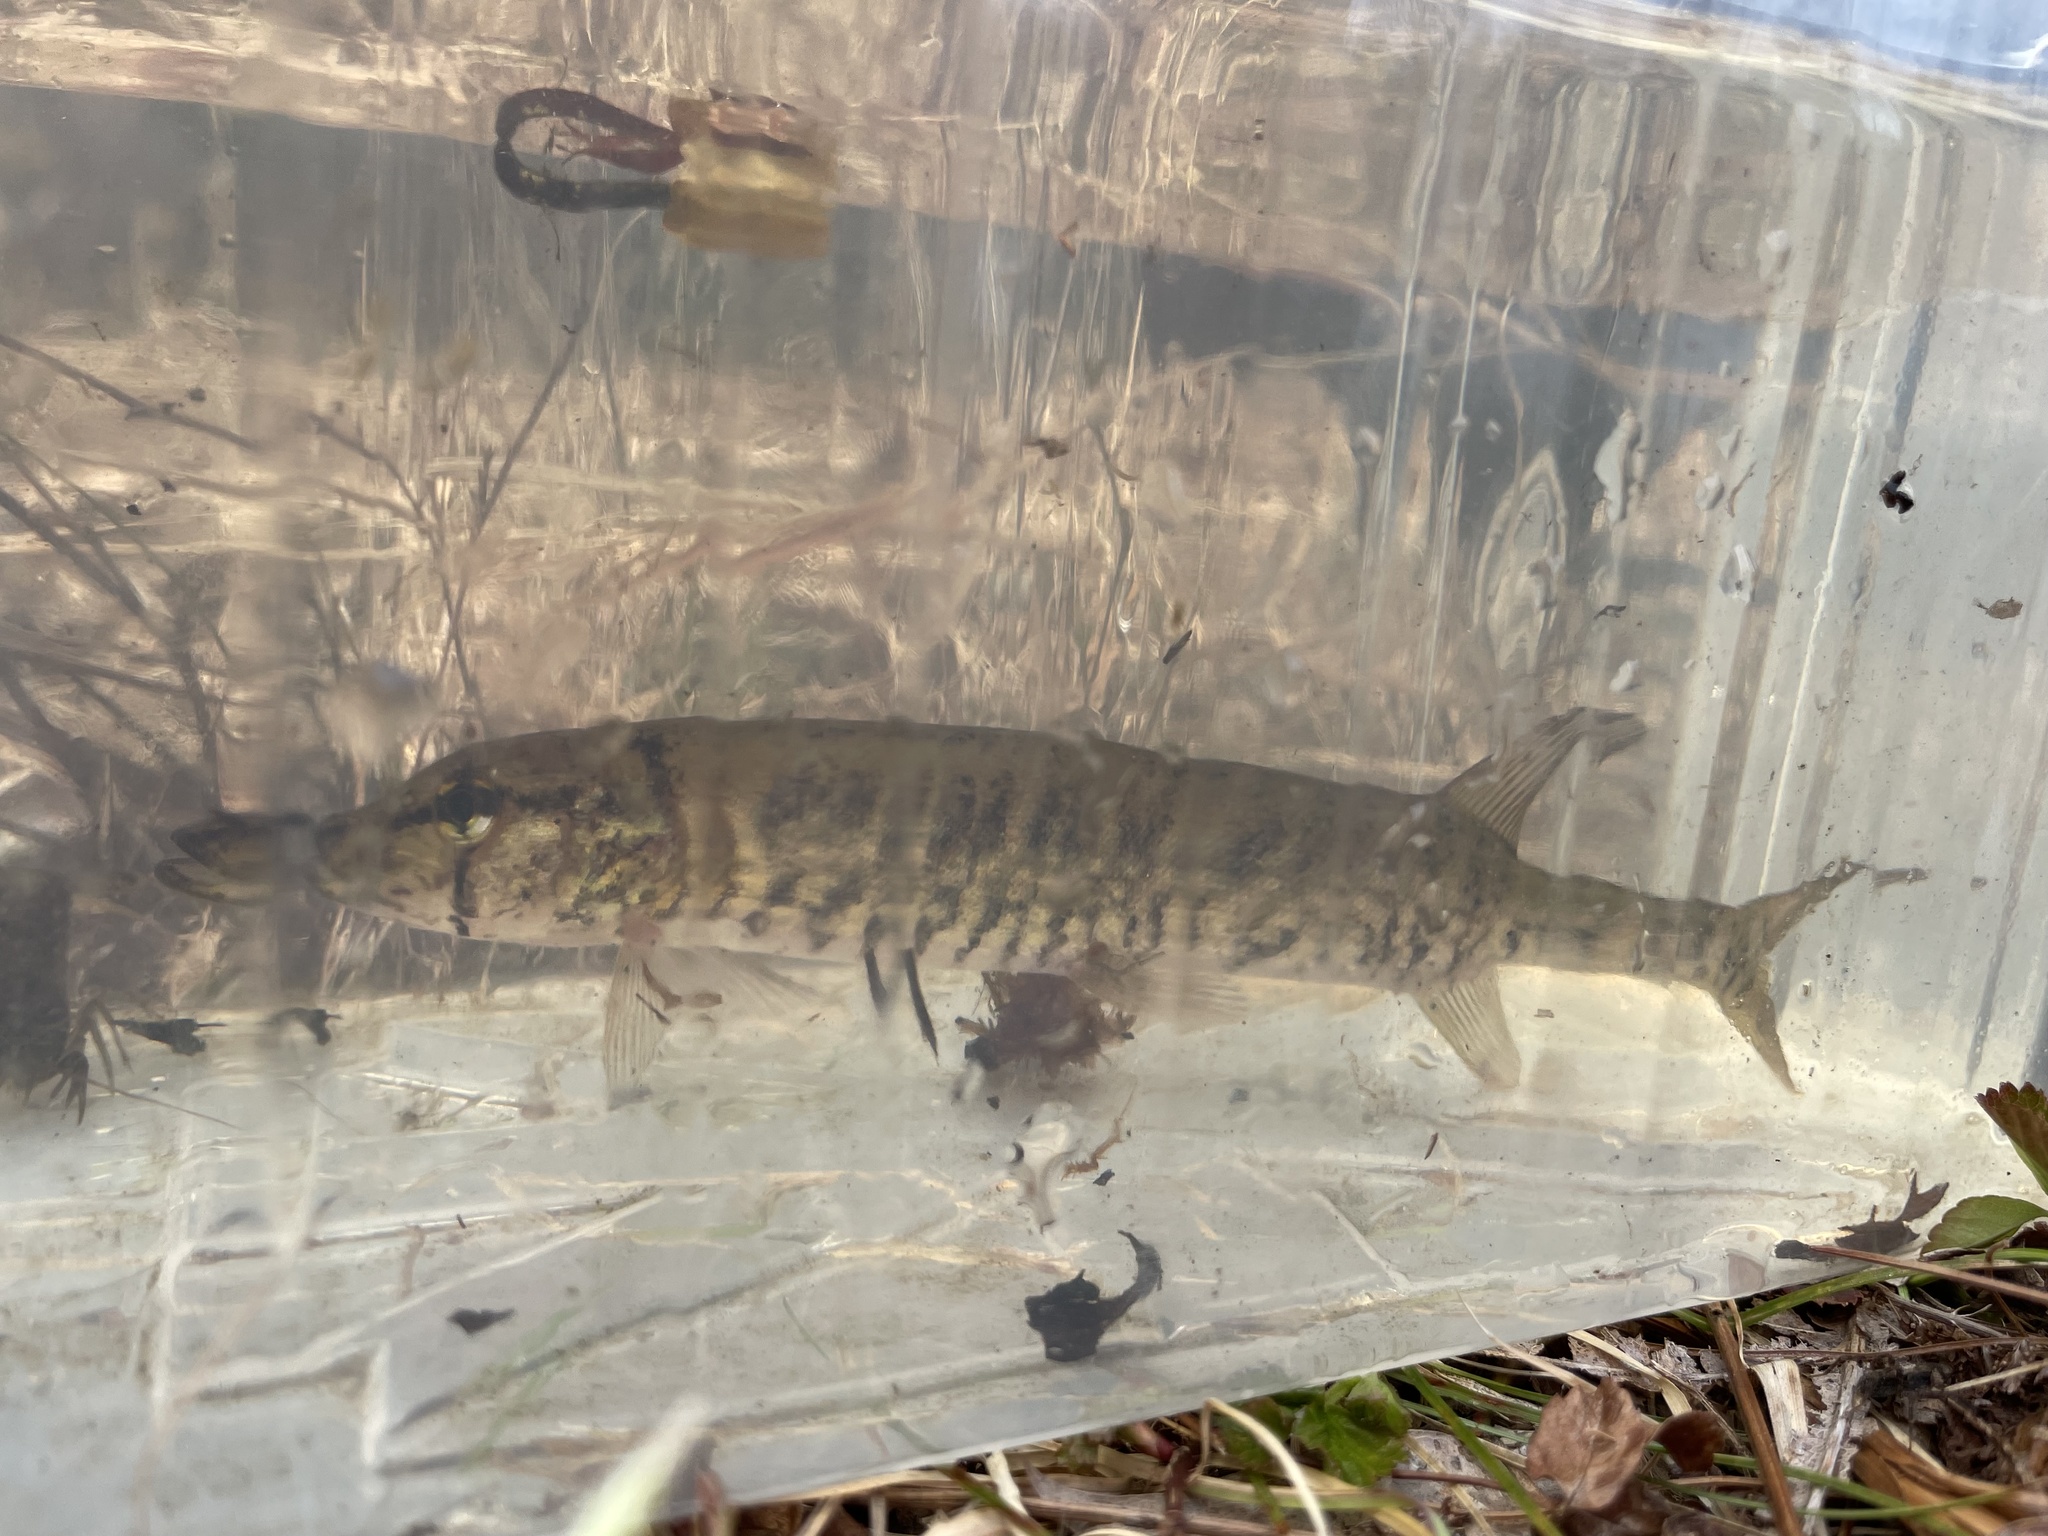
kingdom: Animalia
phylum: Chordata
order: Esociformes
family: Esocidae
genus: Esox
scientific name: Esox niger
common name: Chain pickerel
